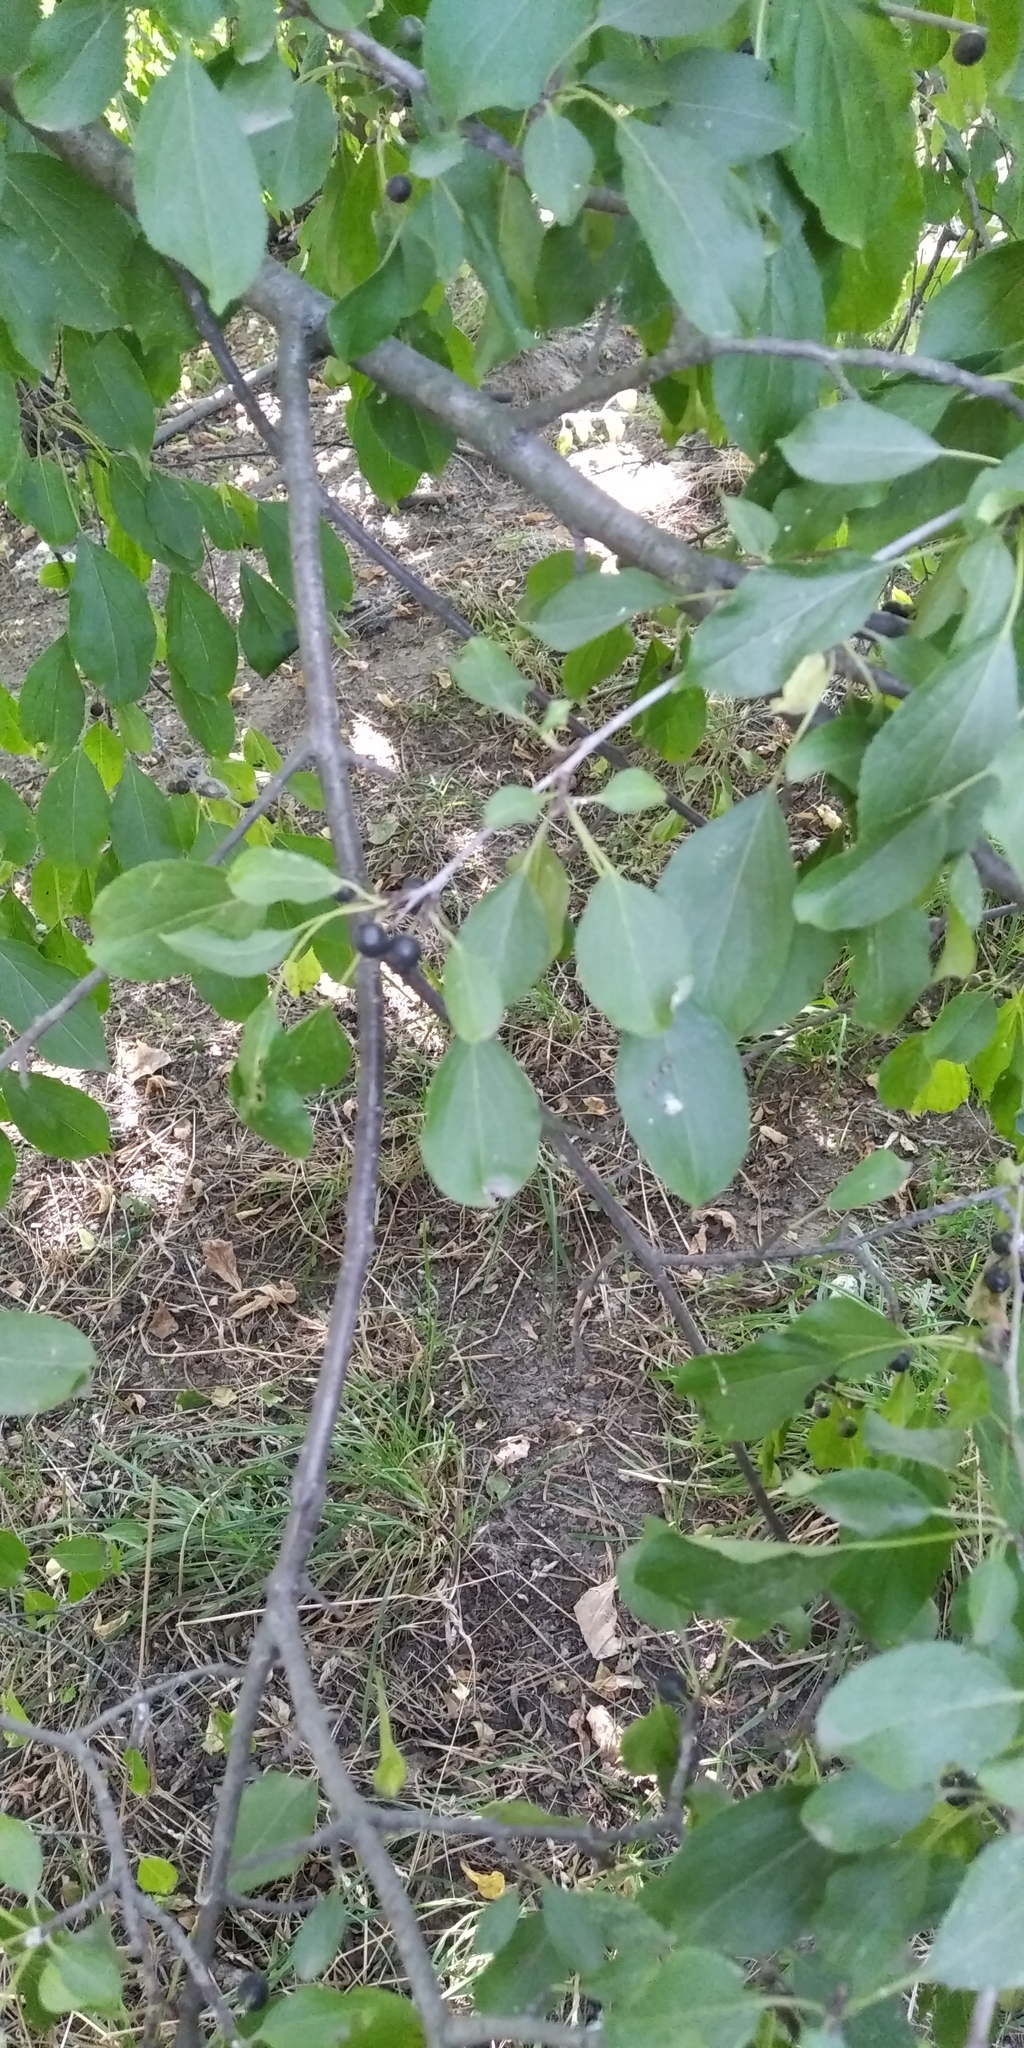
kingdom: Plantae
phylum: Tracheophyta
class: Magnoliopsida
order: Rosales
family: Rhamnaceae
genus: Rhamnus
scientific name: Rhamnus cathartica
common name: Common buckthorn
